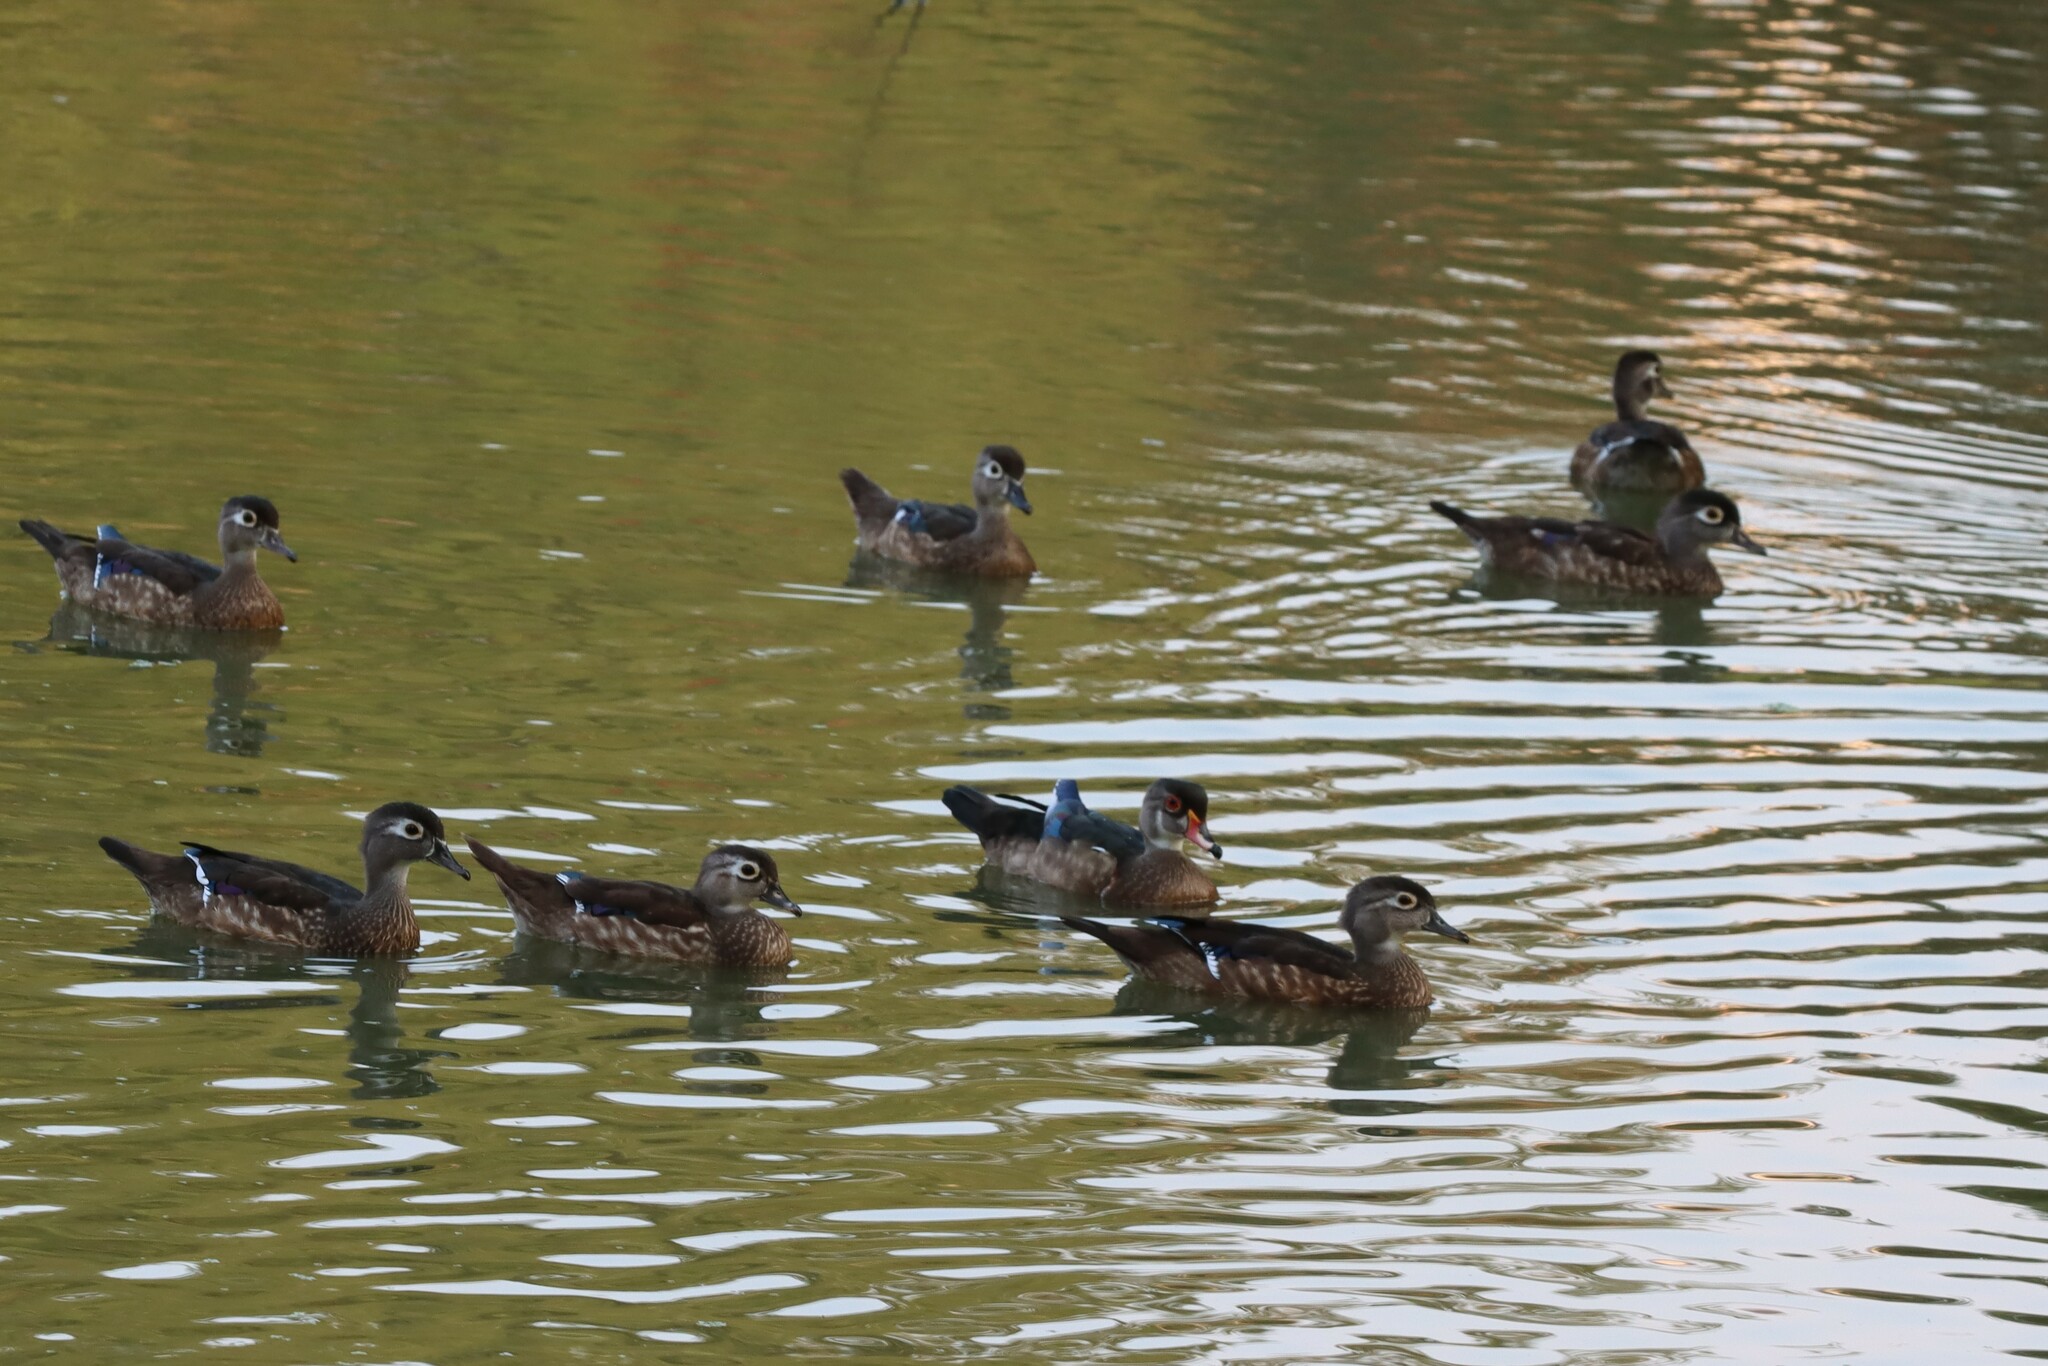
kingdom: Animalia
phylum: Chordata
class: Aves
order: Anseriformes
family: Anatidae
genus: Aix
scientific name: Aix sponsa
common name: Wood duck
